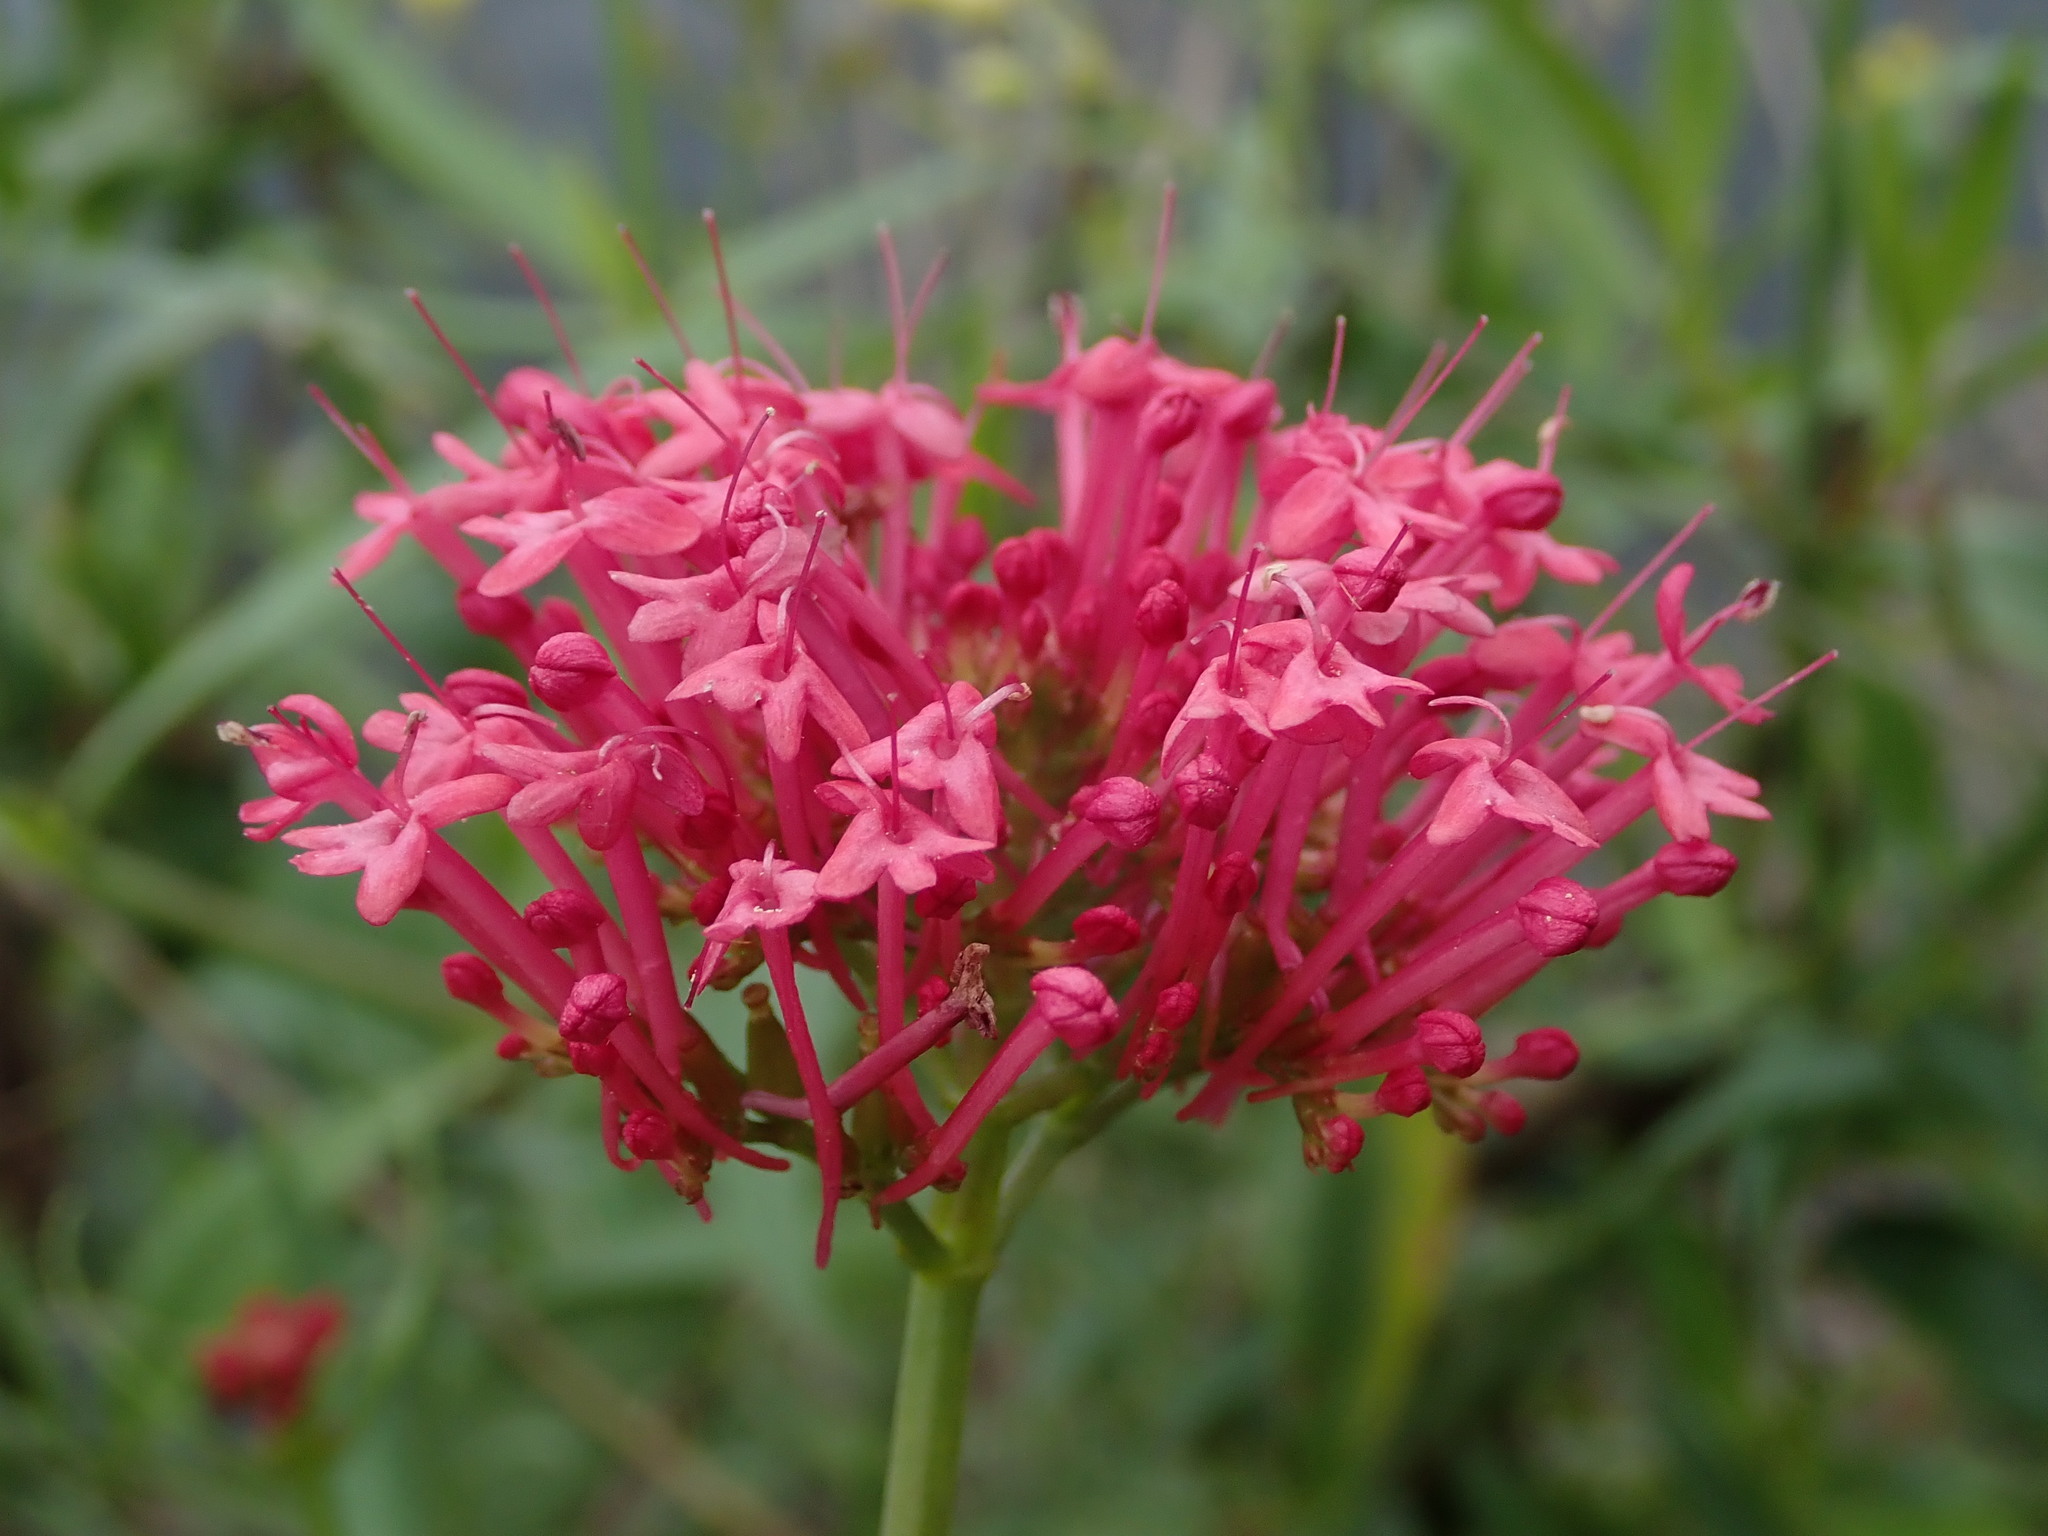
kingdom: Plantae
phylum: Tracheophyta
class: Magnoliopsida
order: Dipsacales
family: Caprifoliaceae
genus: Centranthus
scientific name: Centranthus ruber
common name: Red valerian
